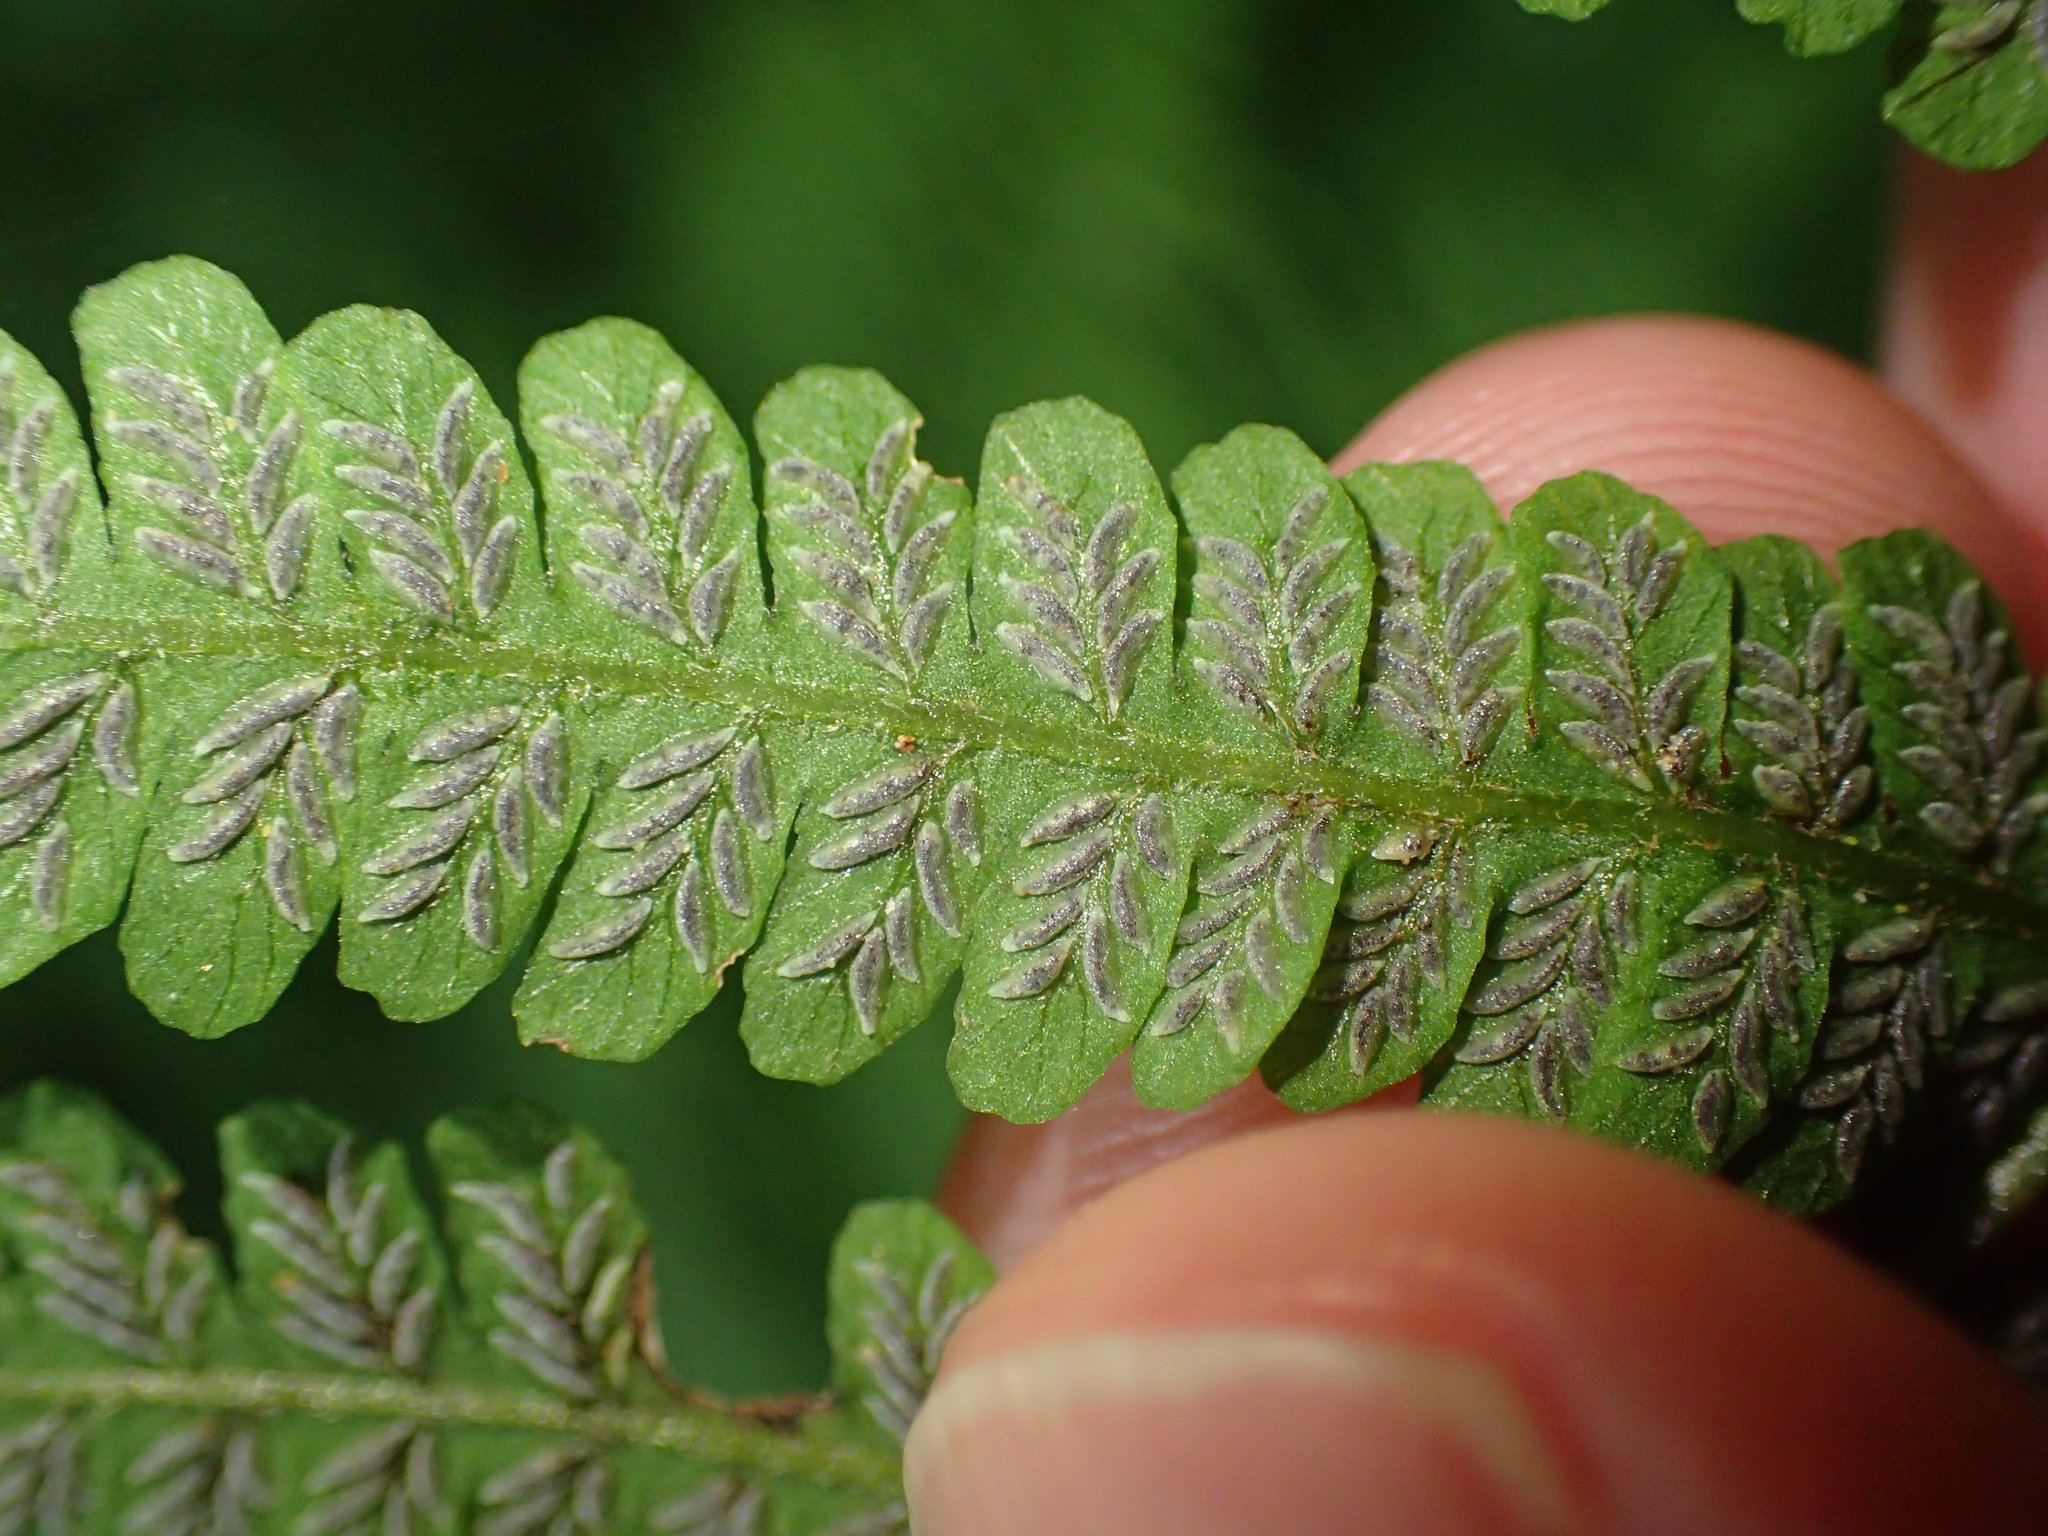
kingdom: Plantae
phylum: Tracheophyta
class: Polypodiopsida
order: Polypodiales
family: Athyriaceae
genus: Deparia
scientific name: Deparia acrostichoides
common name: Silver false spleenwort
